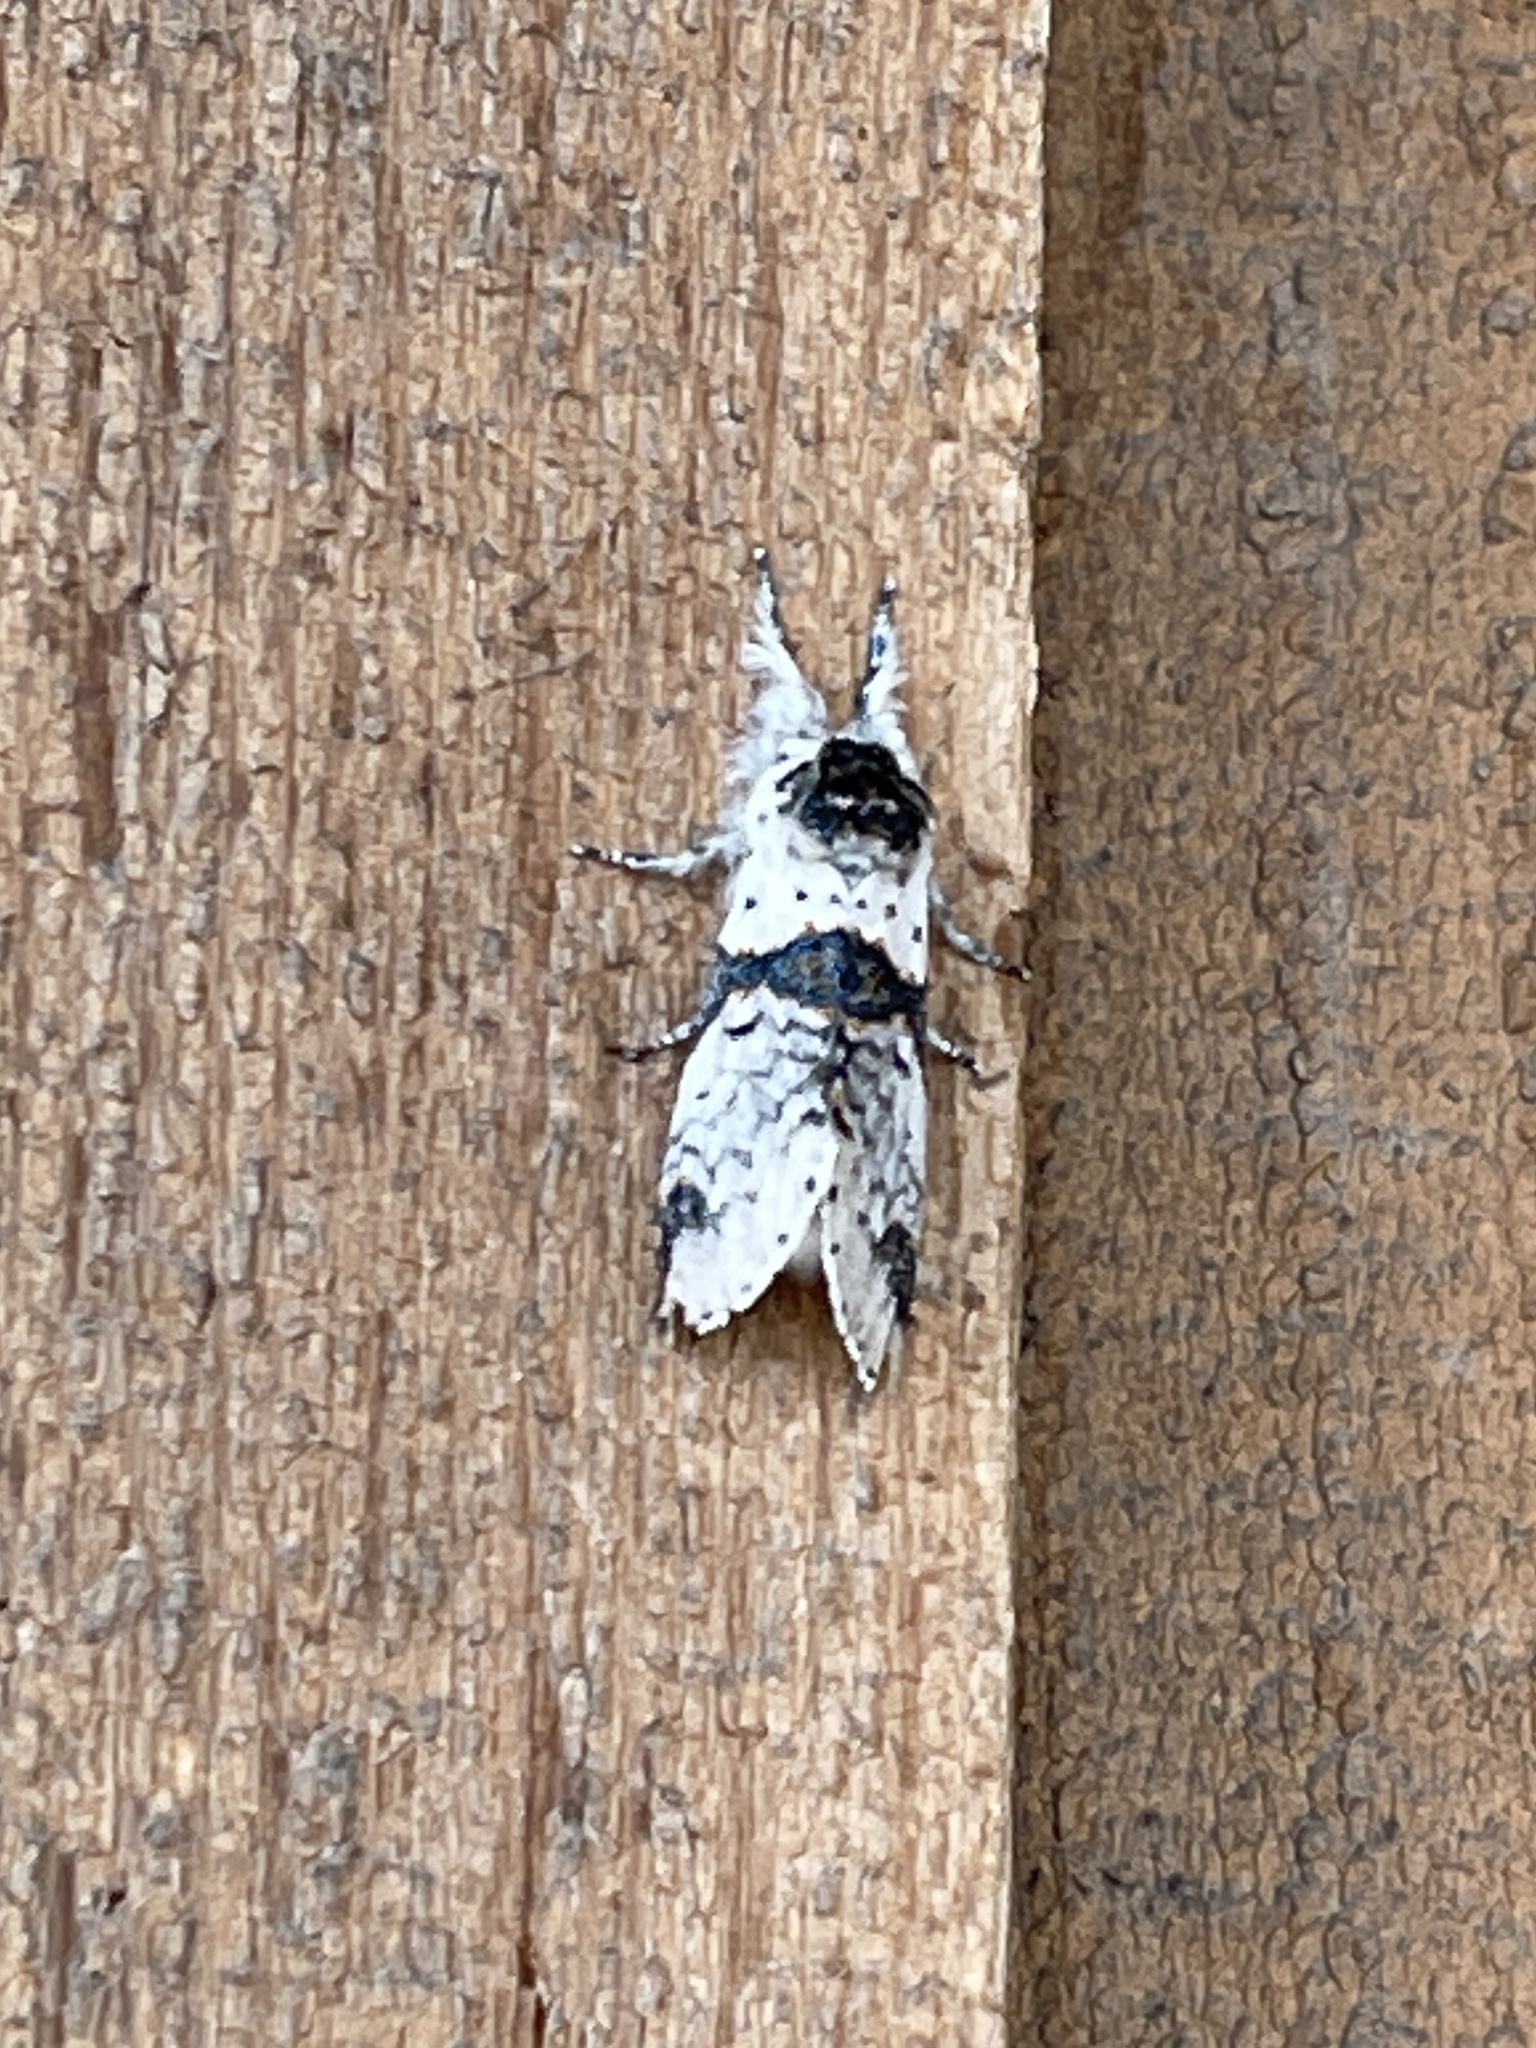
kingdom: Animalia
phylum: Arthropoda
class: Insecta
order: Lepidoptera
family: Notodontidae
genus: Furcula
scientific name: Furcula scolopendrina
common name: Zigzag furcula moth
